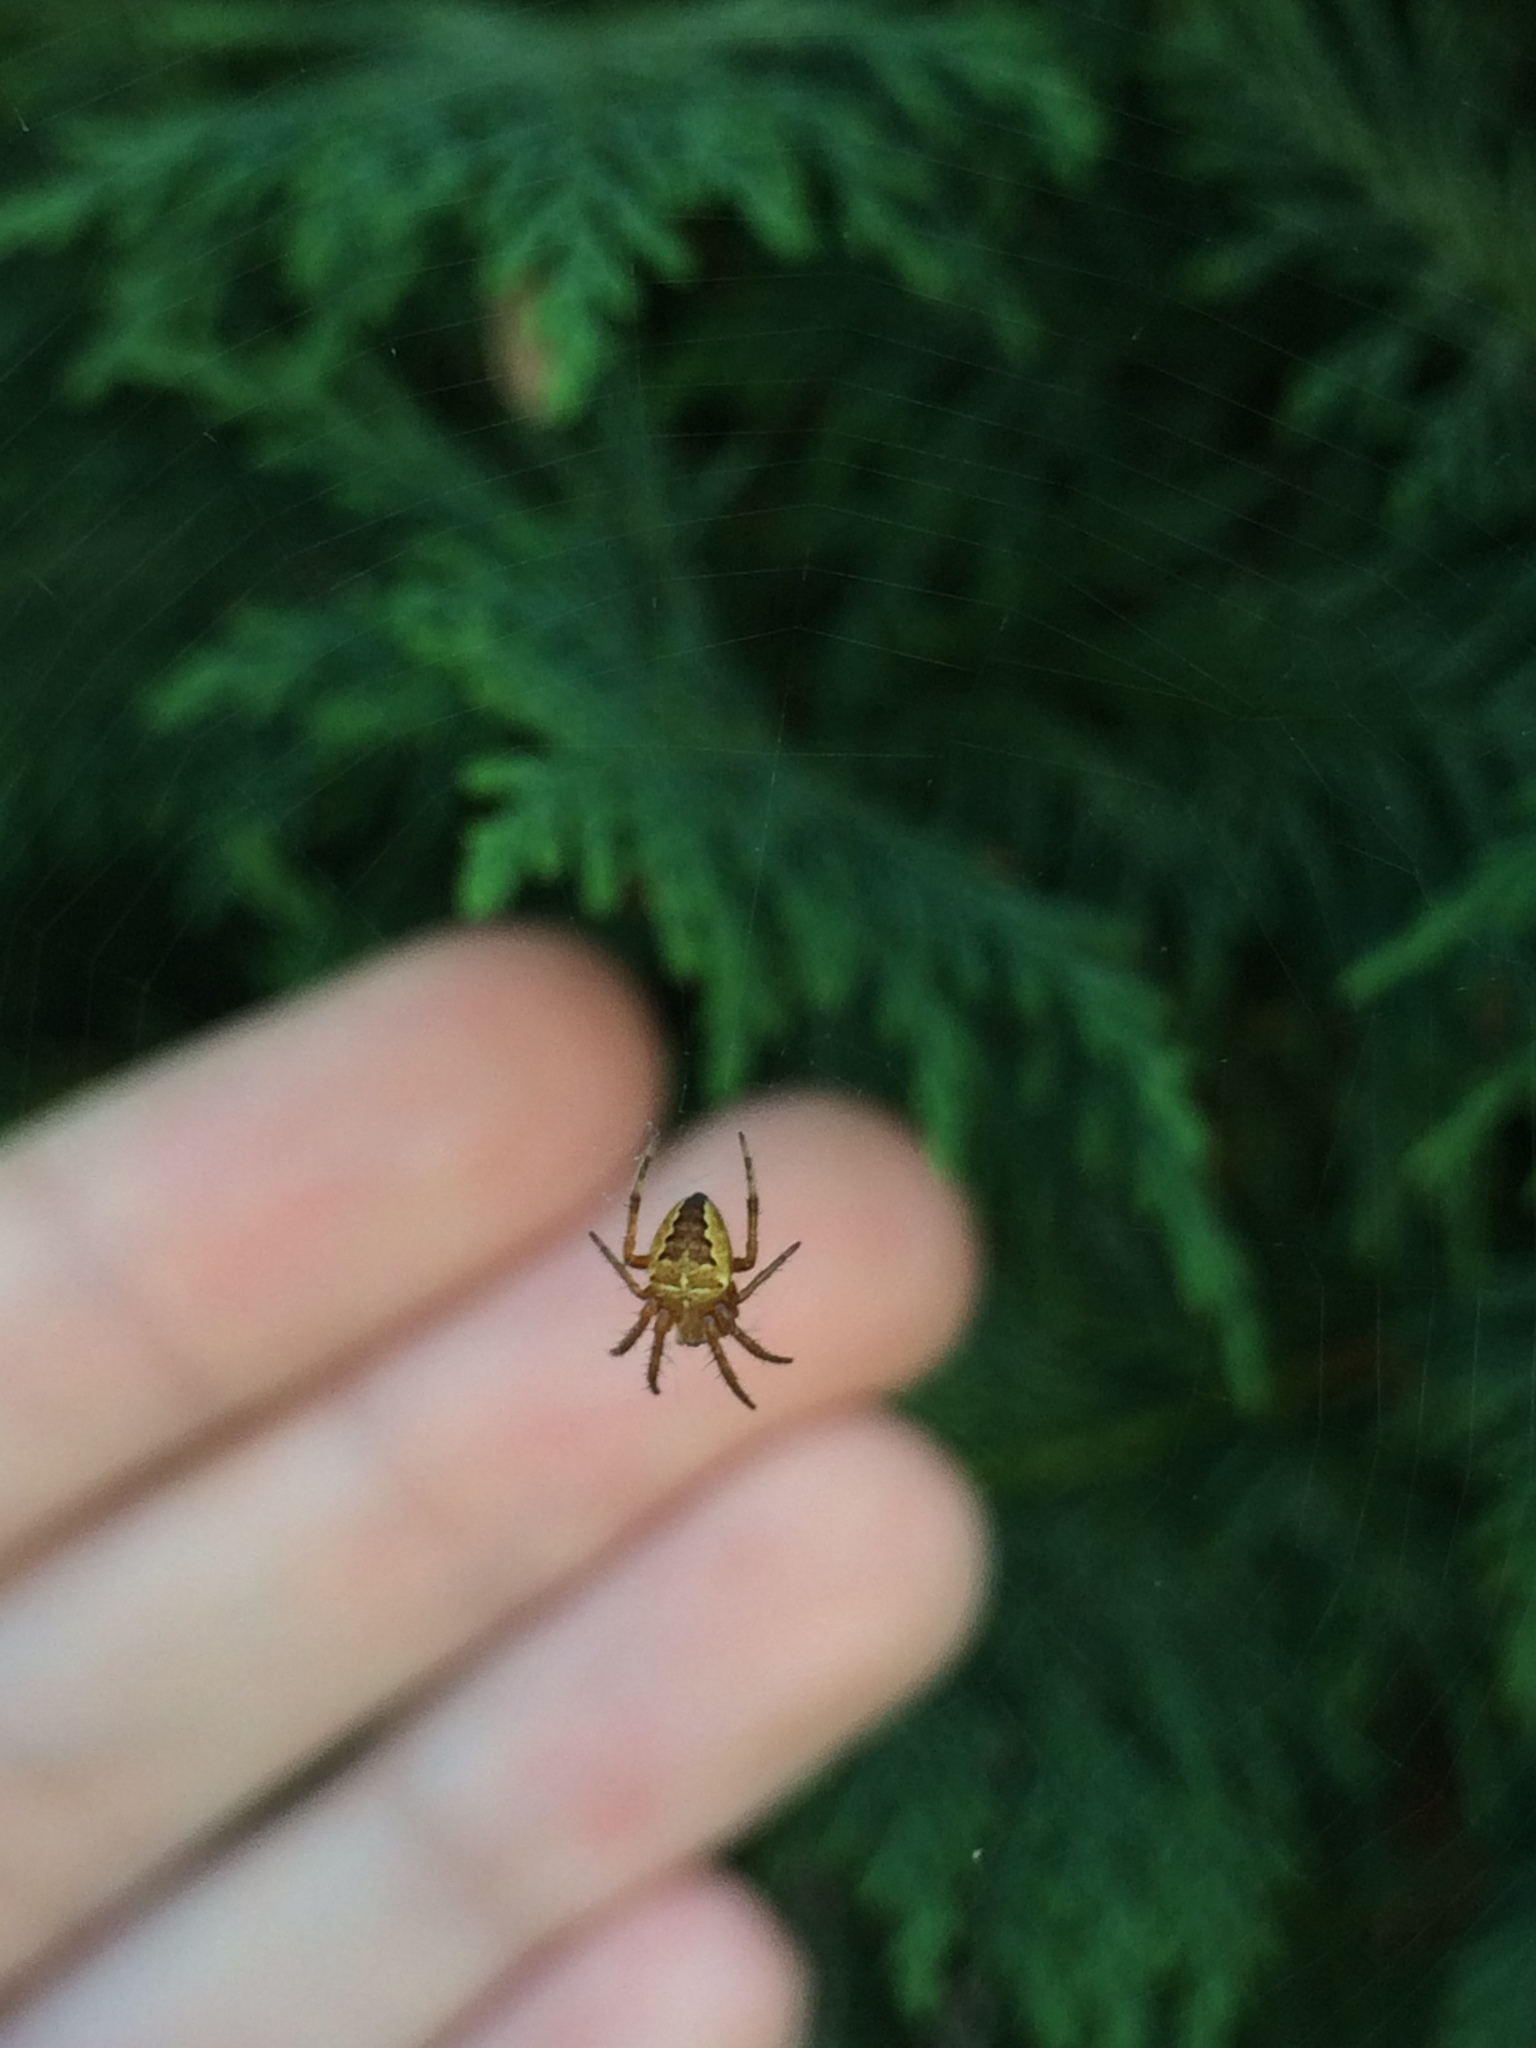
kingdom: Animalia
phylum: Arthropoda
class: Arachnida
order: Araneae
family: Araneidae
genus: Araneus
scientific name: Araneus diadematus
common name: Cross orbweaver
